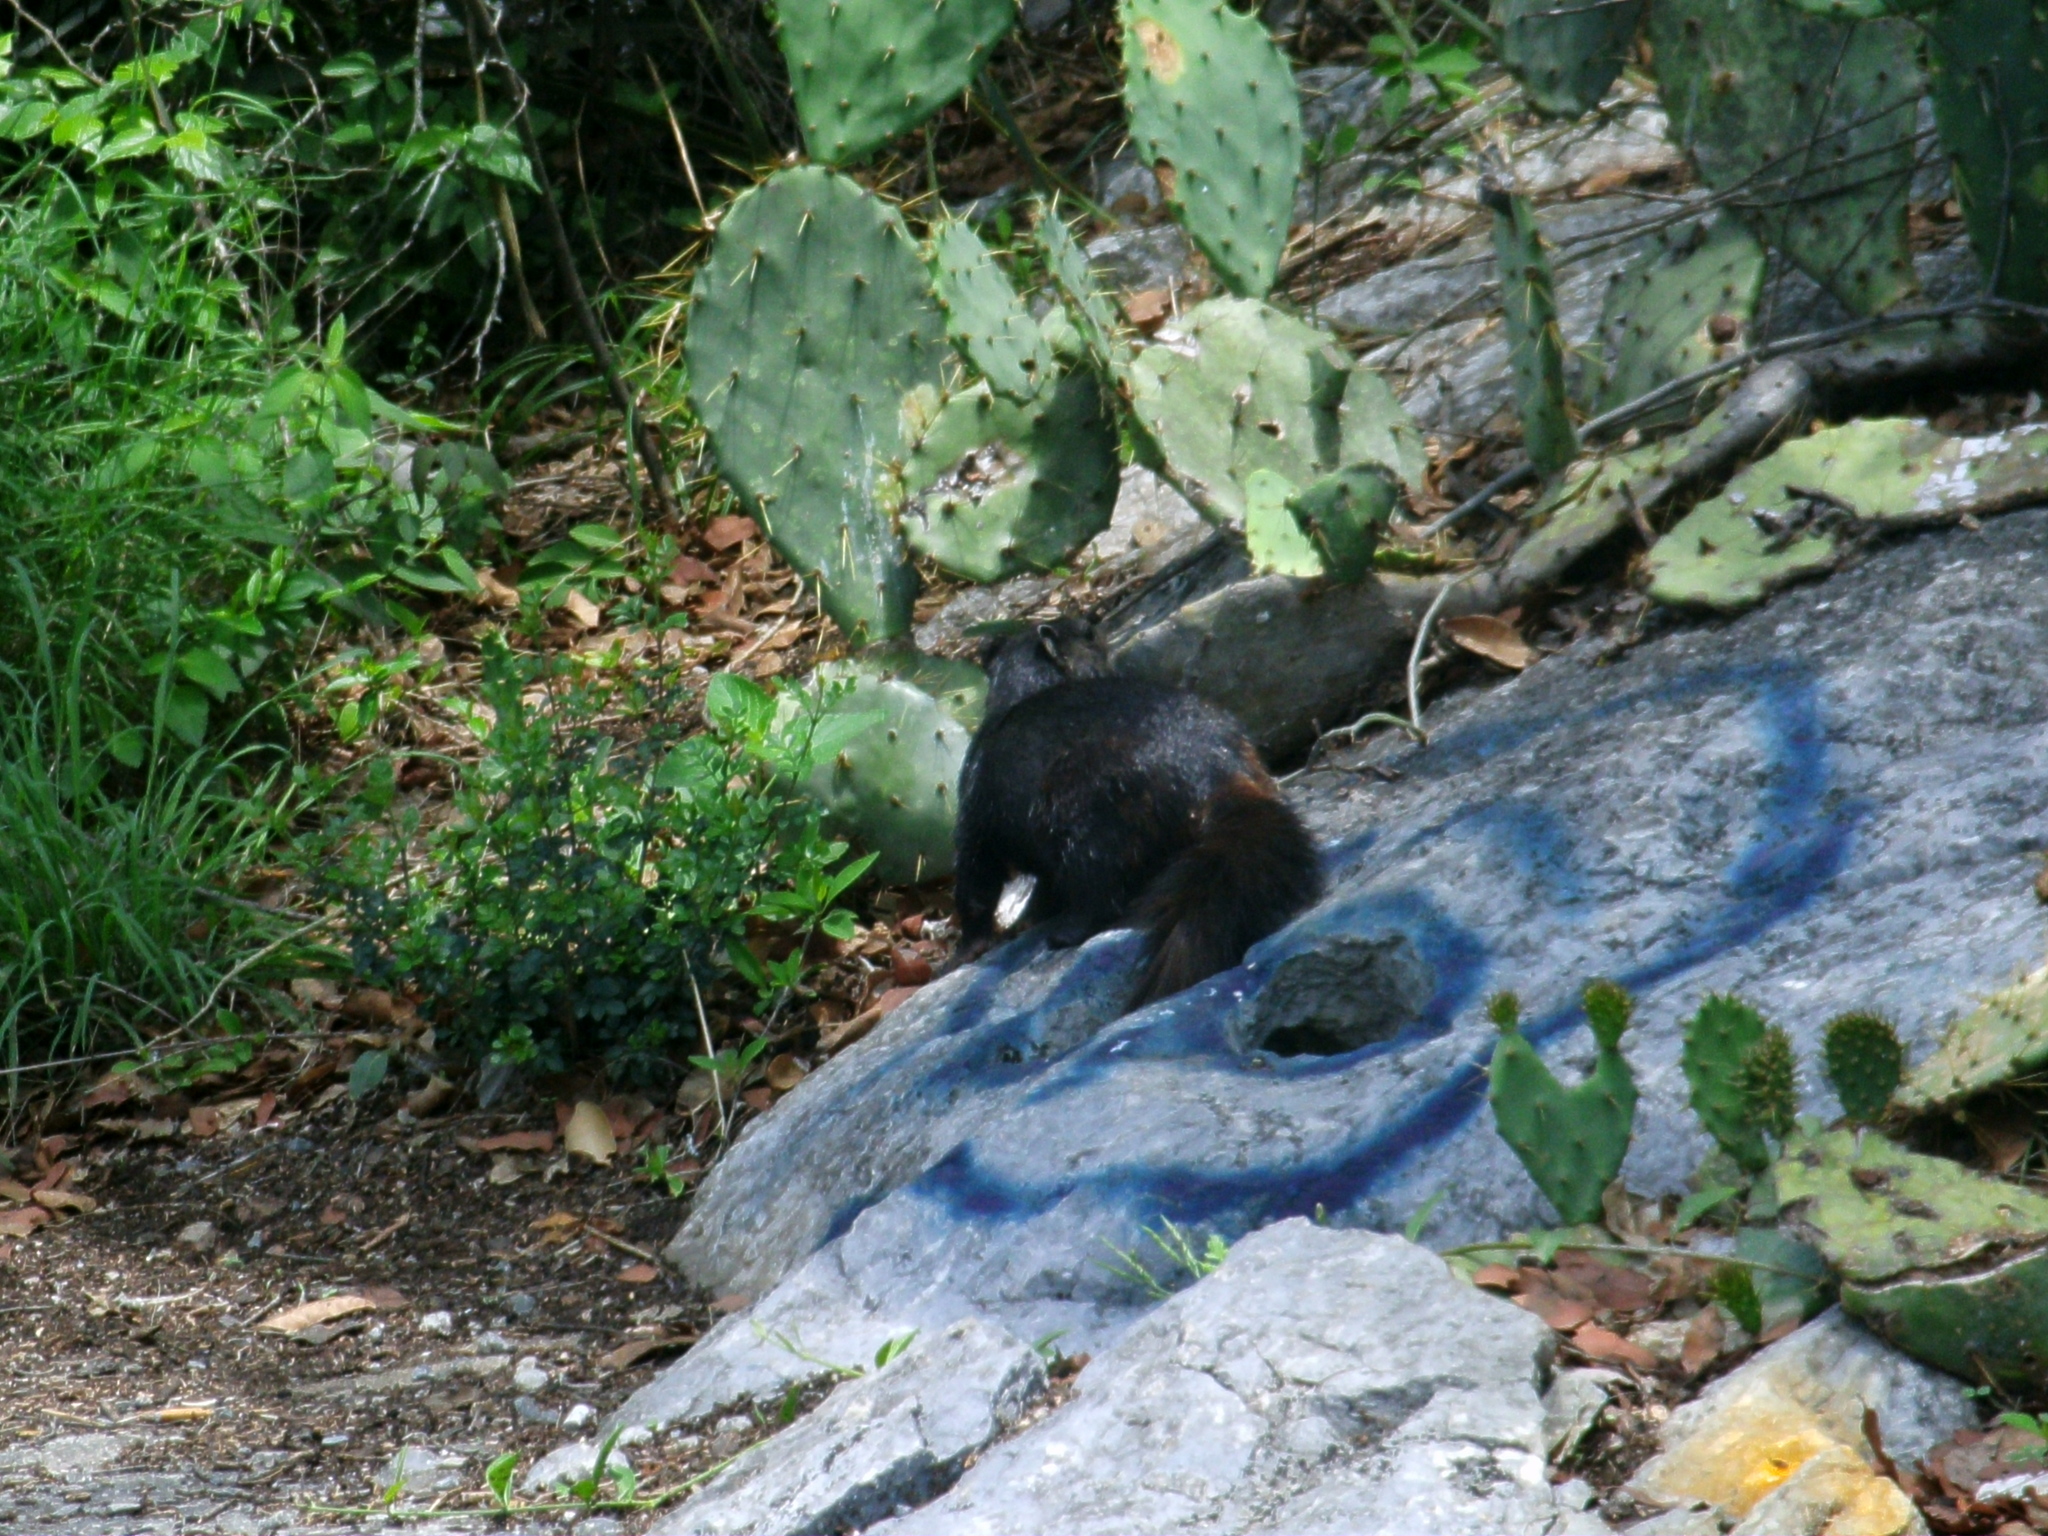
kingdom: Animalia
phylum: Chordata
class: Mammalia
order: Rodentia
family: Sciuridae
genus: Otospermophilus
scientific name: Otospermophilus variegatus
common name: Rock squirrel
